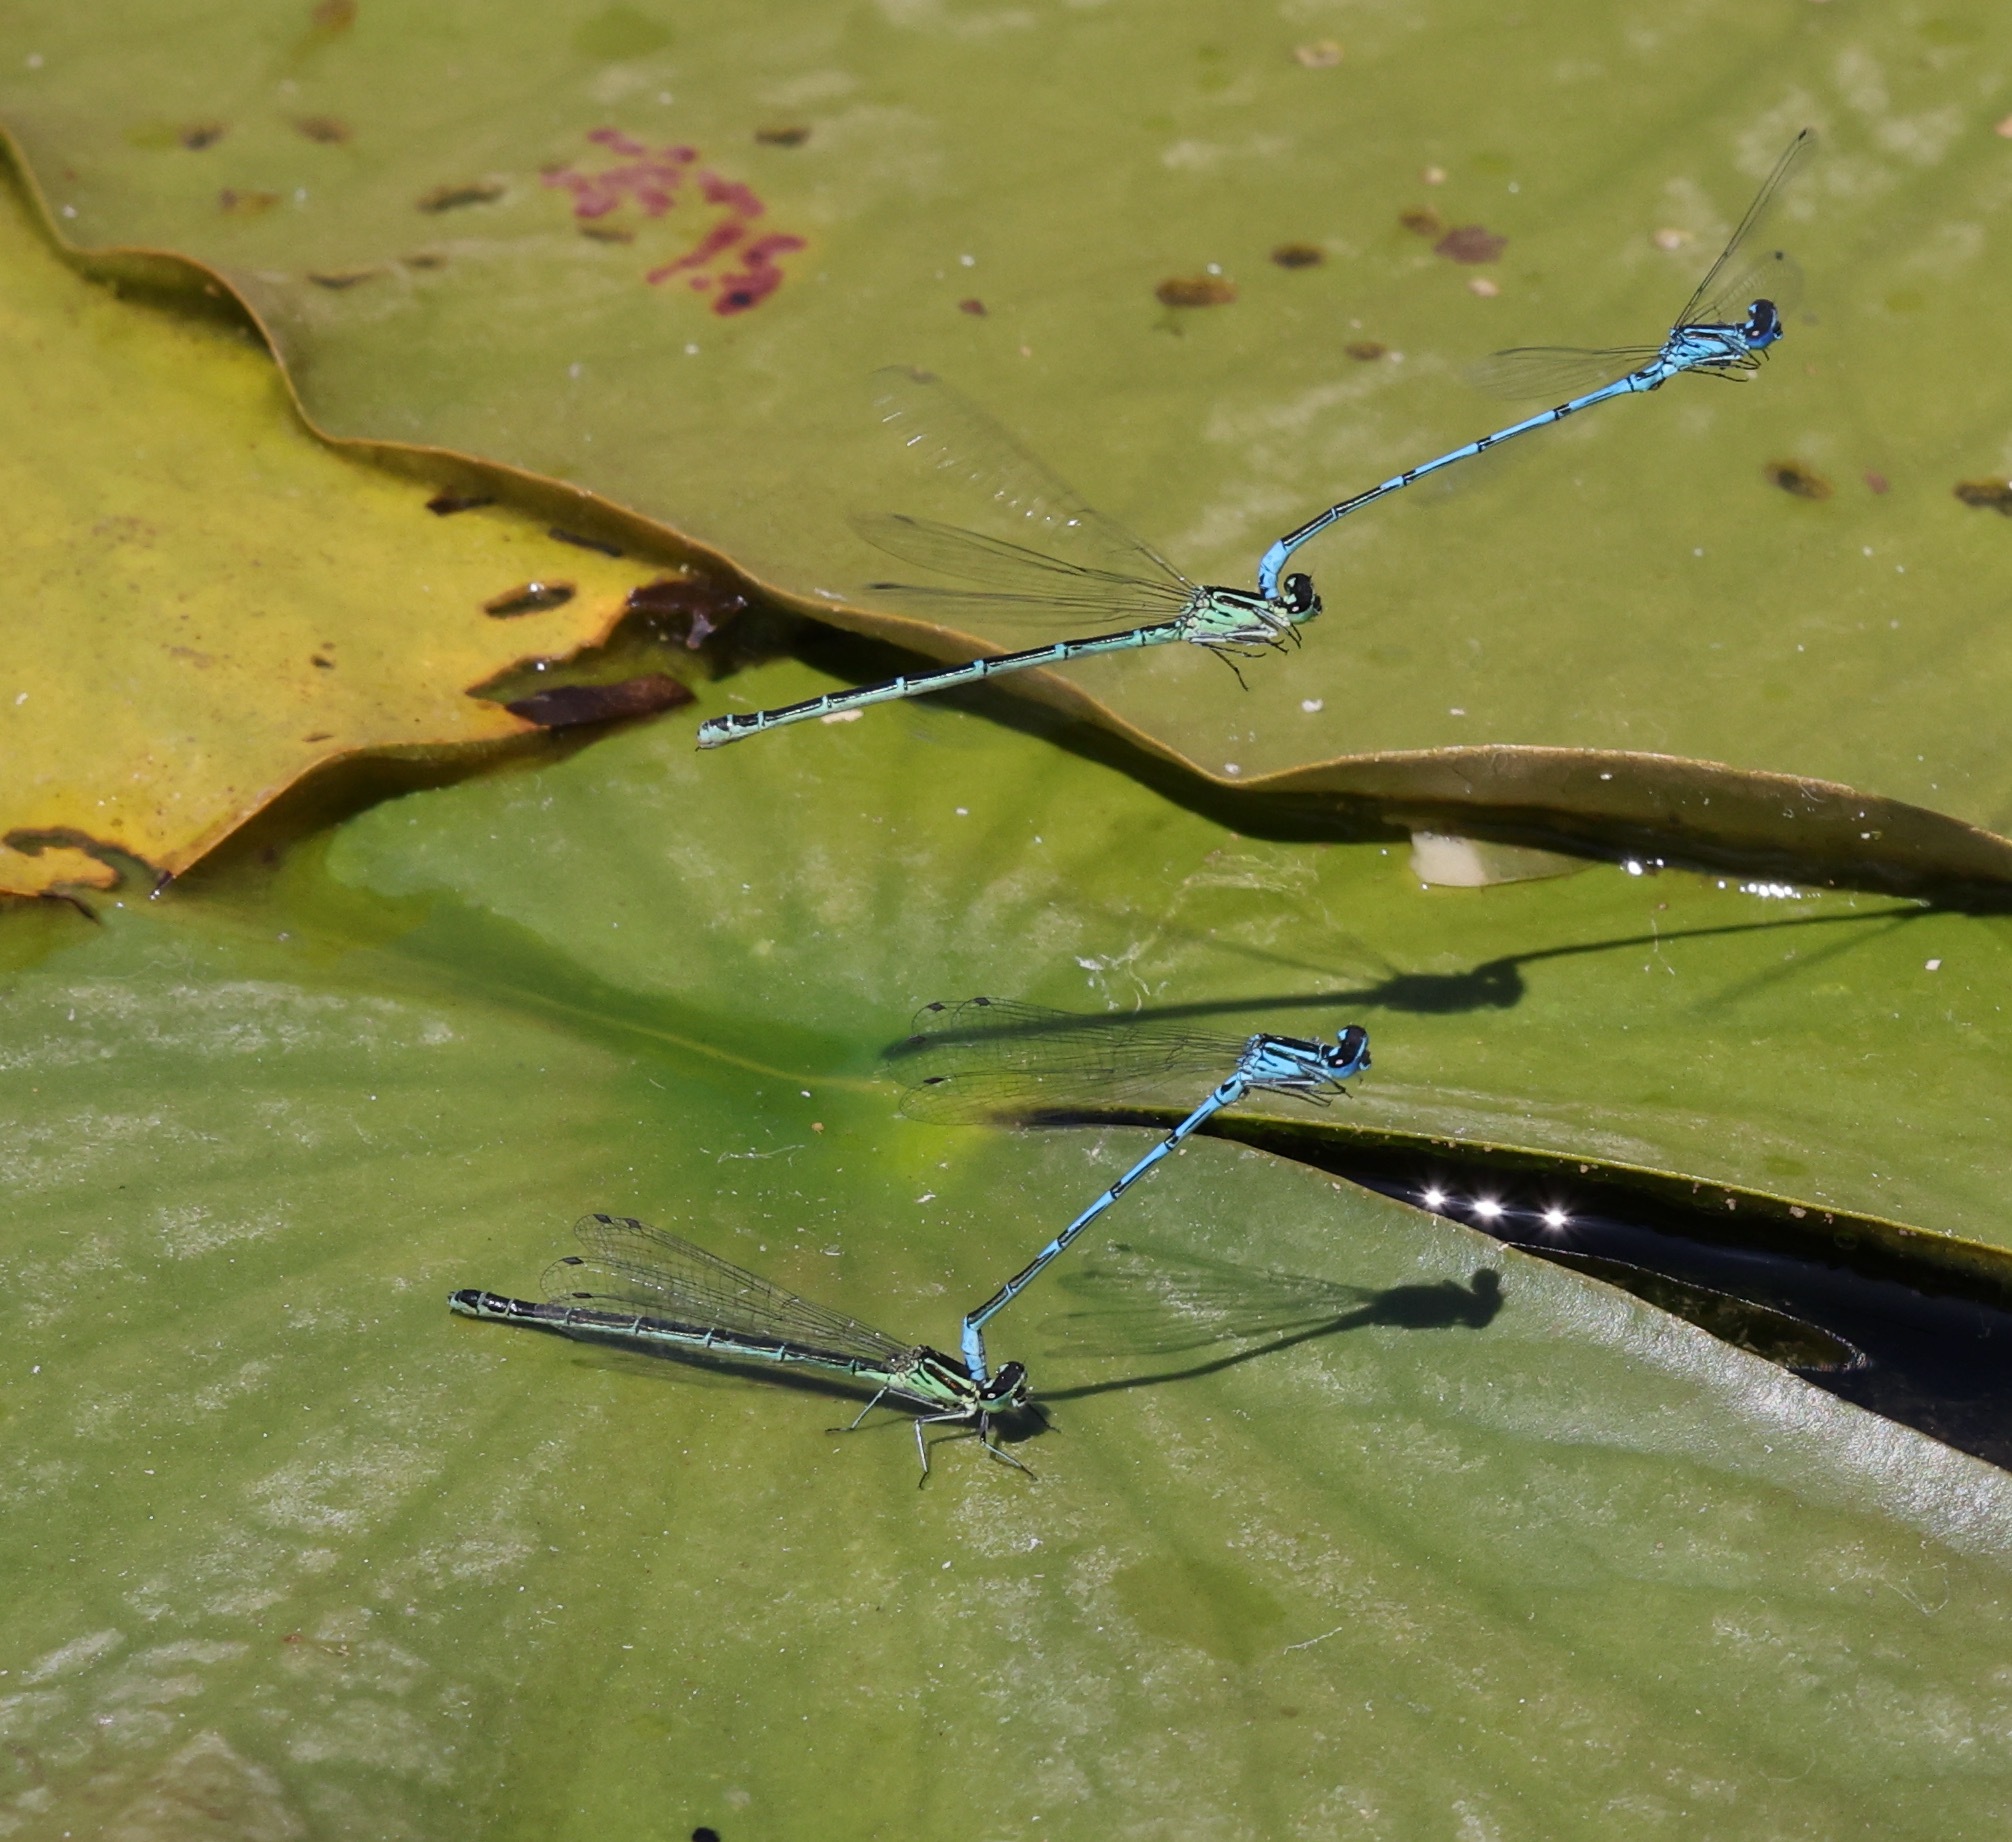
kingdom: Animalia
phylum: Arthropoda
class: Insecta
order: Odonata
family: Coenagrionidae
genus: Coenagrion
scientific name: Coenagrion puella
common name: Azure damselfly
